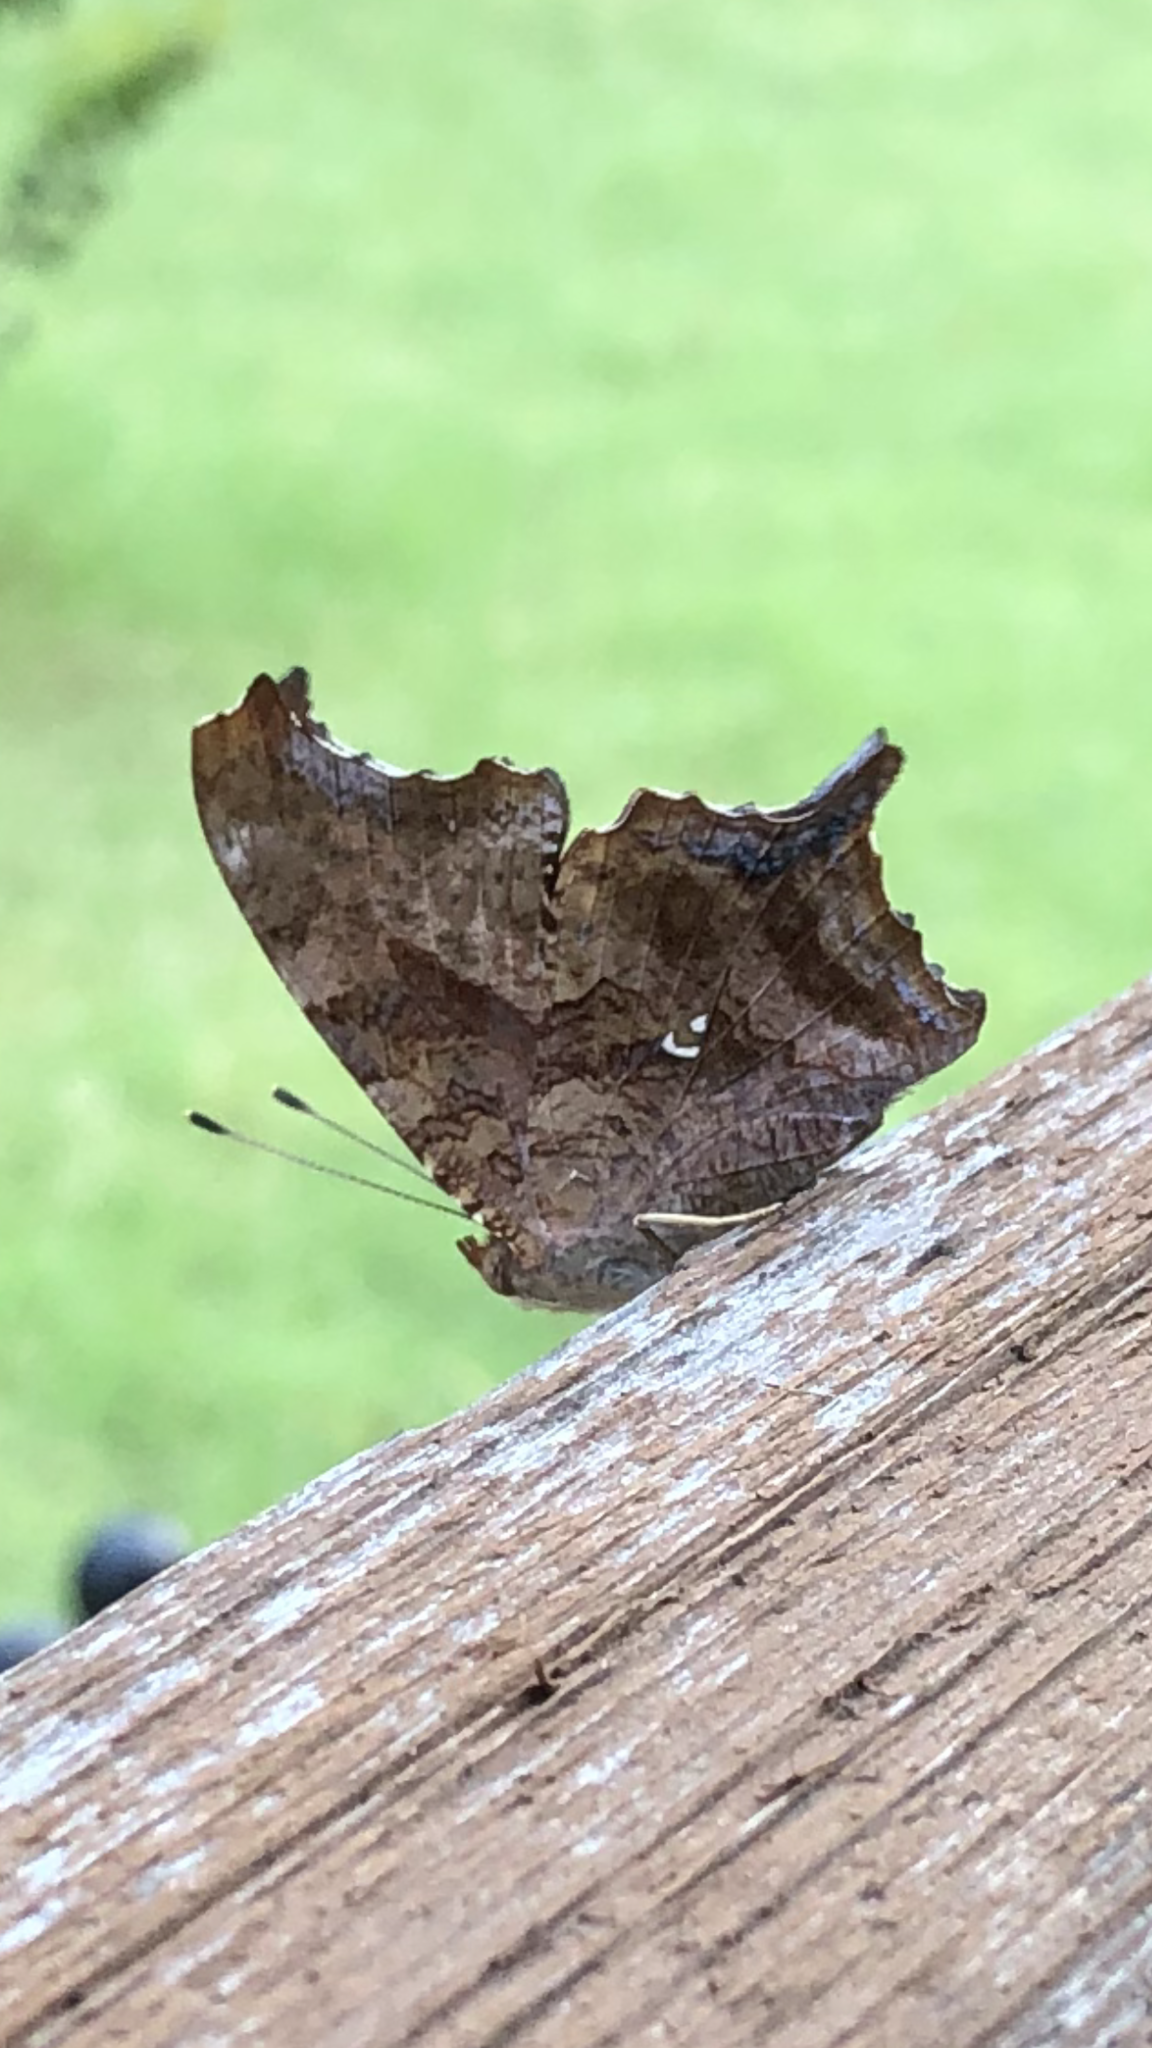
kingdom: Animalia
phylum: Arthropoda
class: Insecta
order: Lepidoptera
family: Nymphalidae
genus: Polygonia
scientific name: Polygonia interrogationis
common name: Question mark
